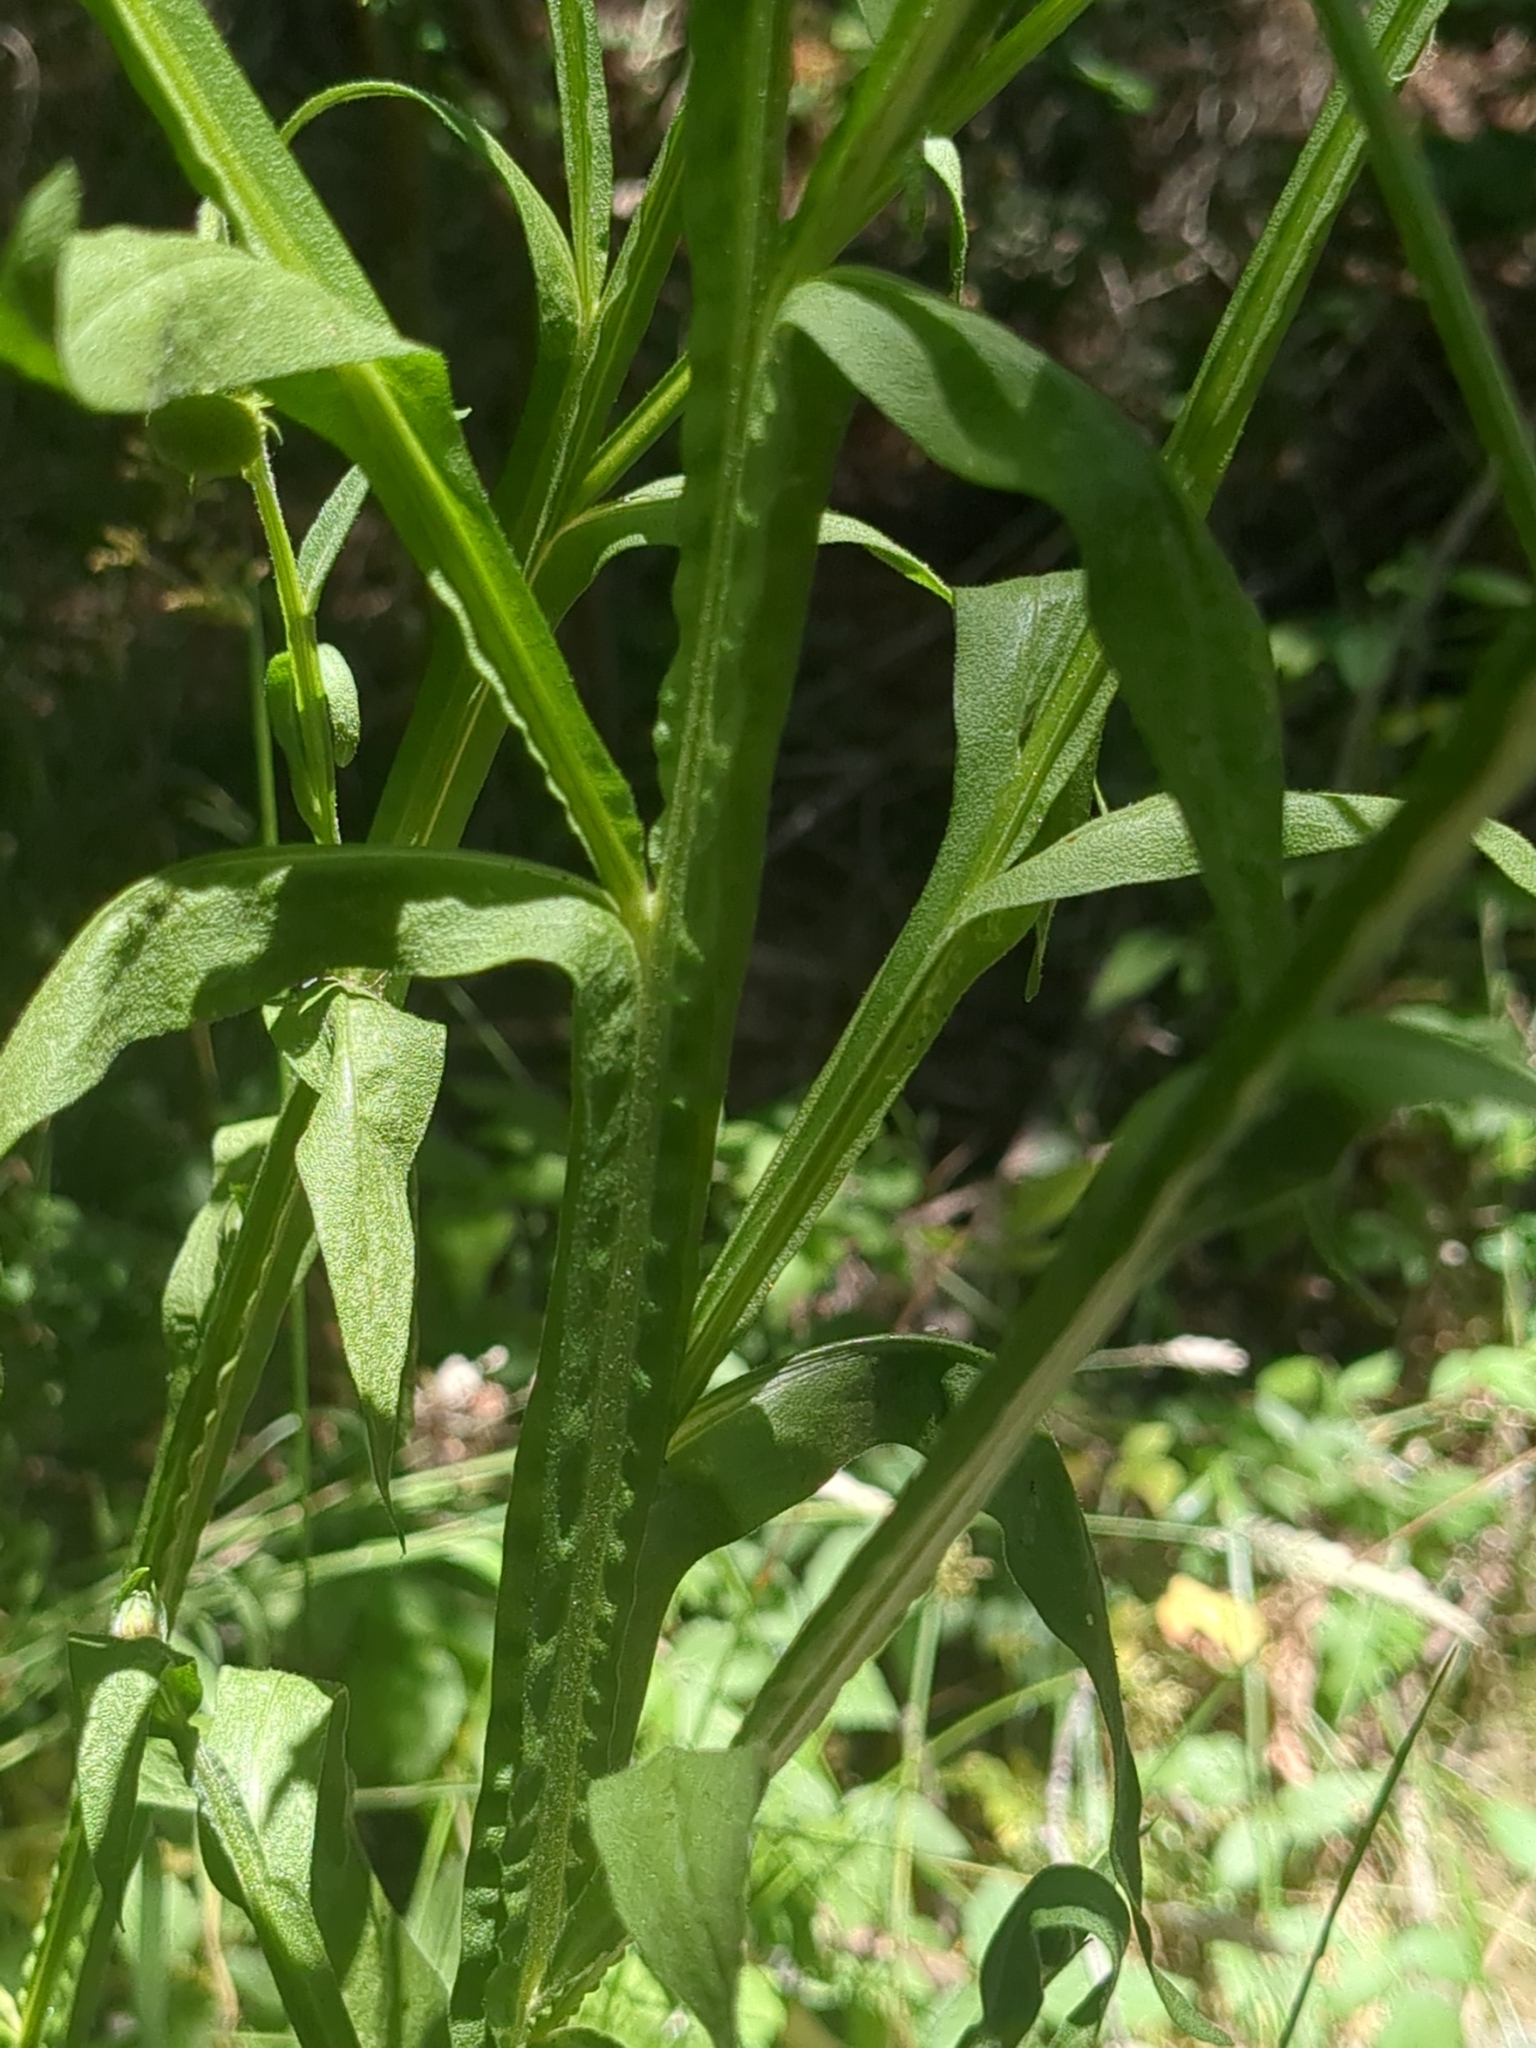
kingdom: Plantae
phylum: Tracheophyta
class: Magnoliopsida
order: Asterales
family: Asteraceae
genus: Helenium
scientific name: Helenium puberulum
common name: Sneezewort
